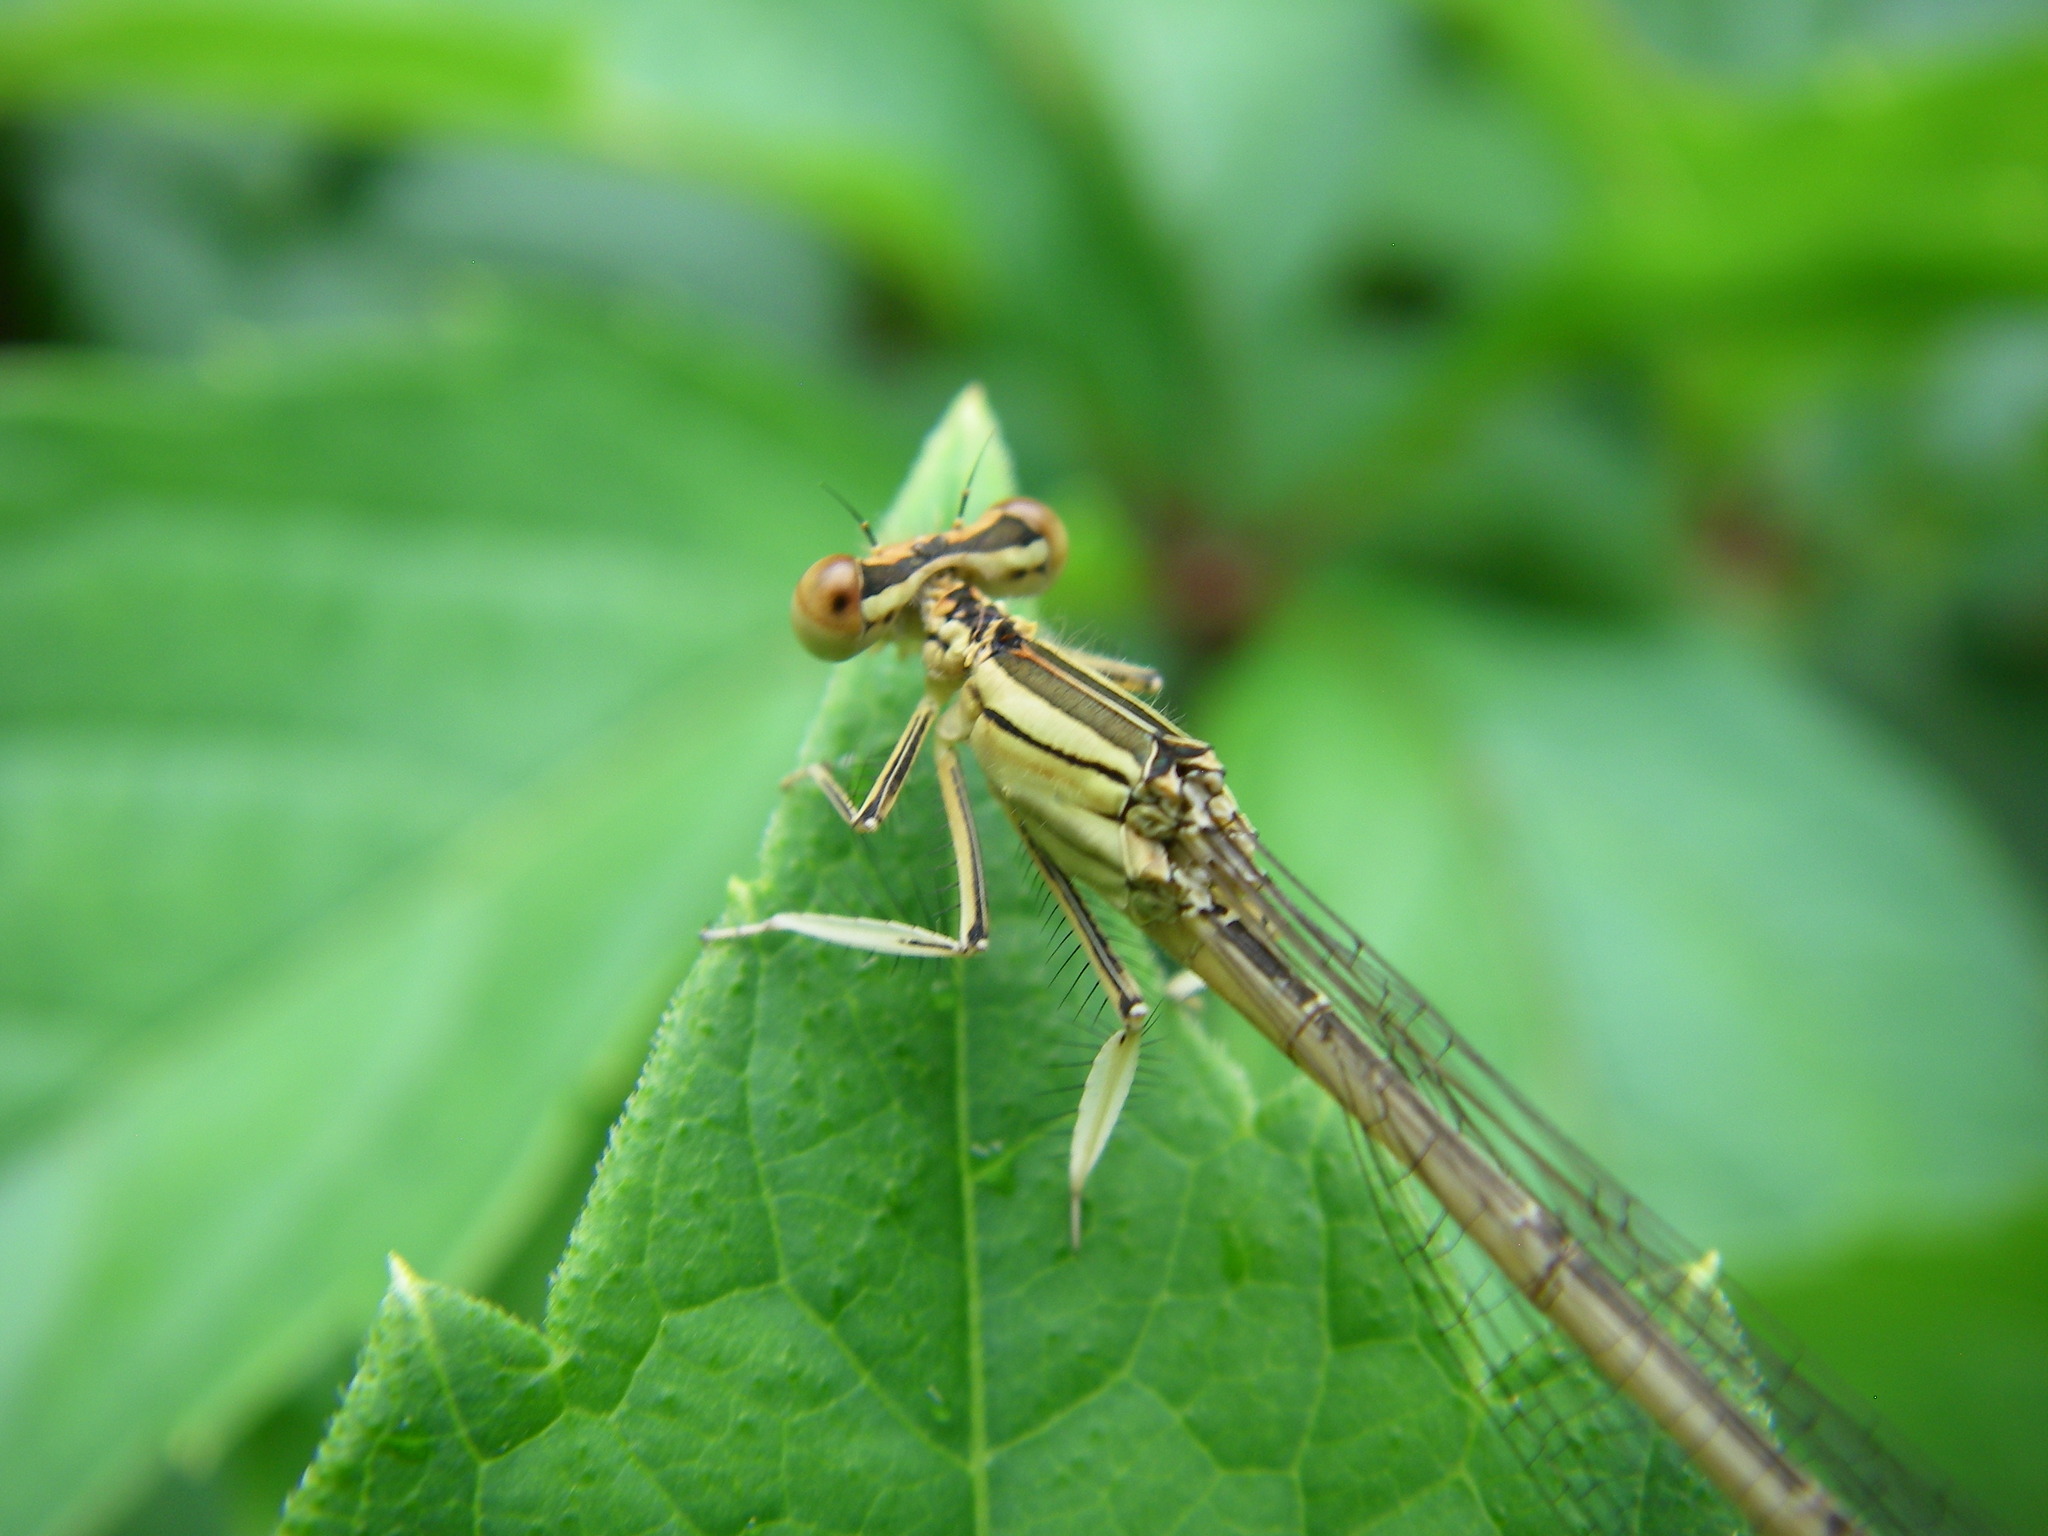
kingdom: Animalia
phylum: Arthropoda
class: Insecta
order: Odonata
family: Platycnemididae
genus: Platycnemis
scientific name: Platycnemis latipes
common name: White featherleg
